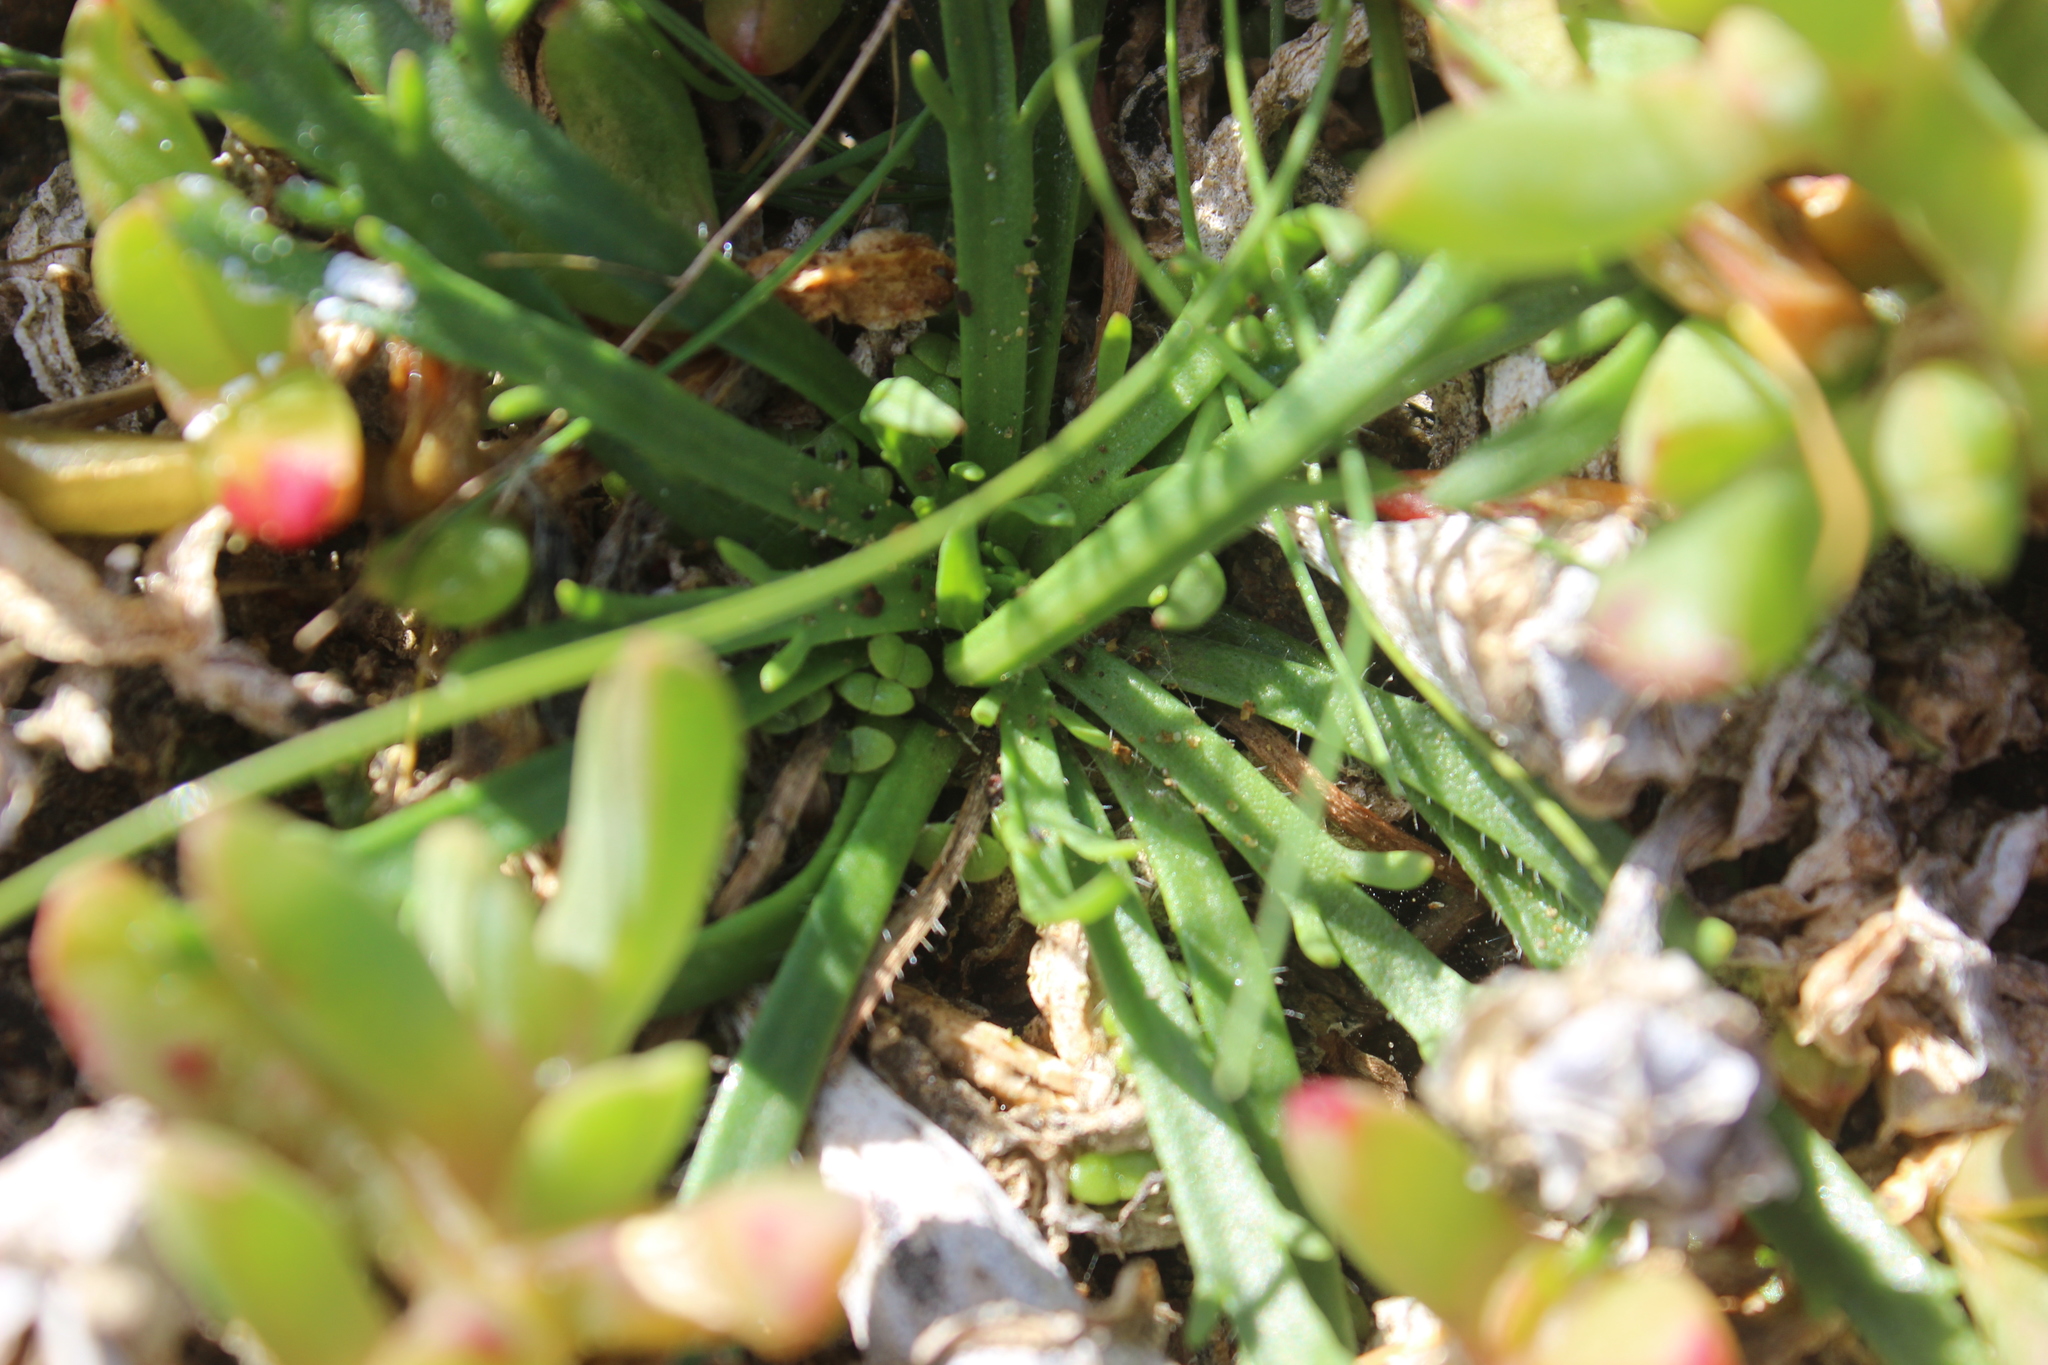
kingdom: Plantae
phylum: Tracheophyta
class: Magnoliopsida
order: Lamiales
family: Plantaginaceae
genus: Plantago
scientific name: Plantago coronopus
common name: Buck's-horn plantain
